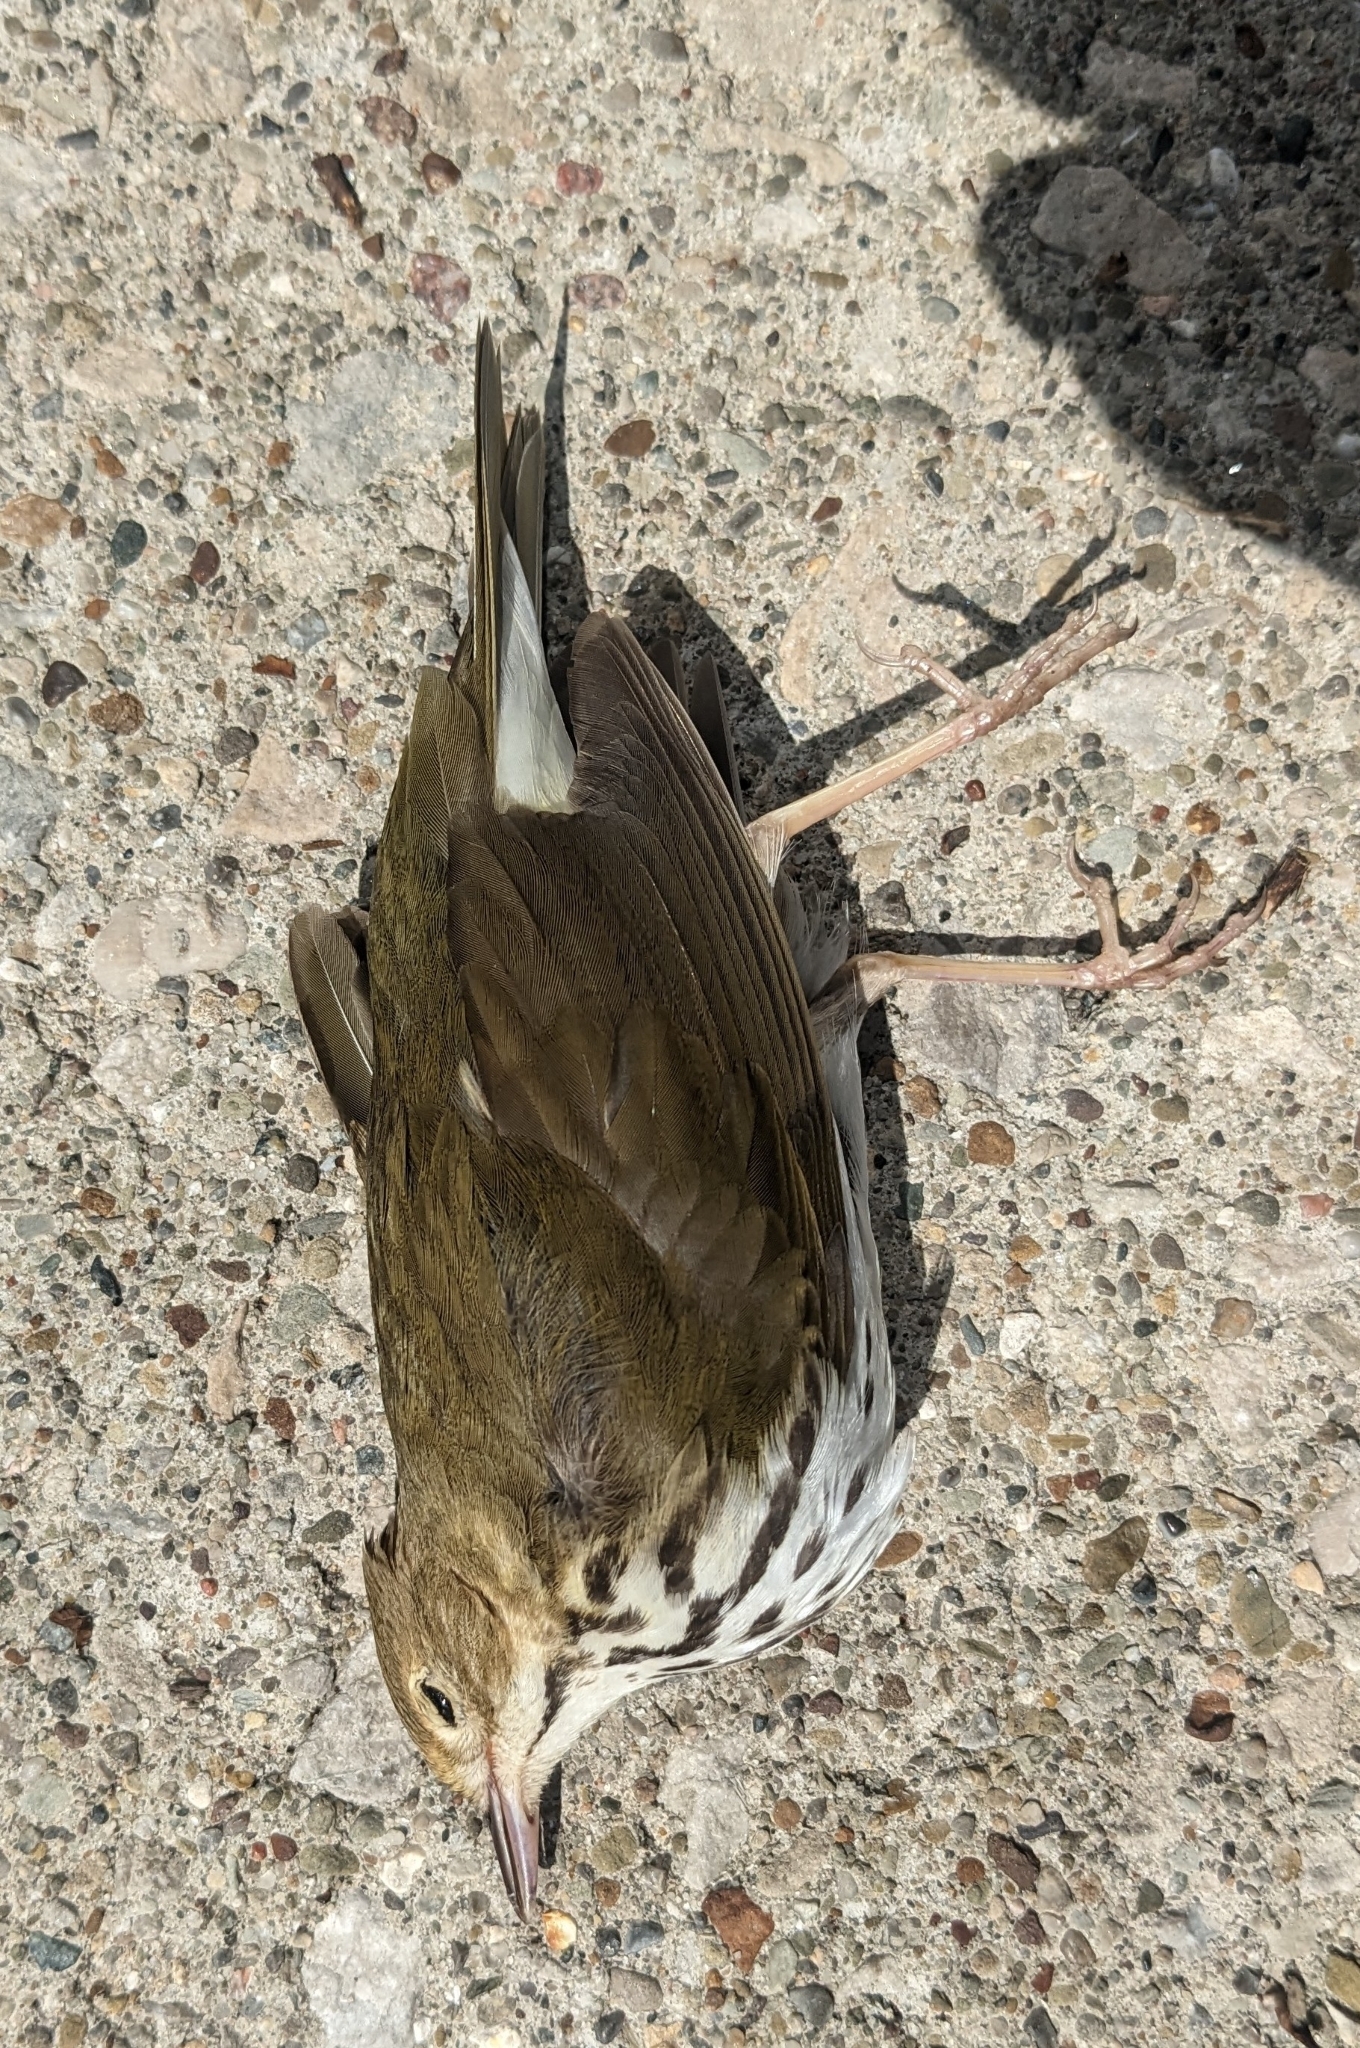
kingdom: Animalia
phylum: Chordata
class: Aves
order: Passeriformes
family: Parulidae
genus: Seiurus
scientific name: Seiurus aurocapilla
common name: Ovenbird
